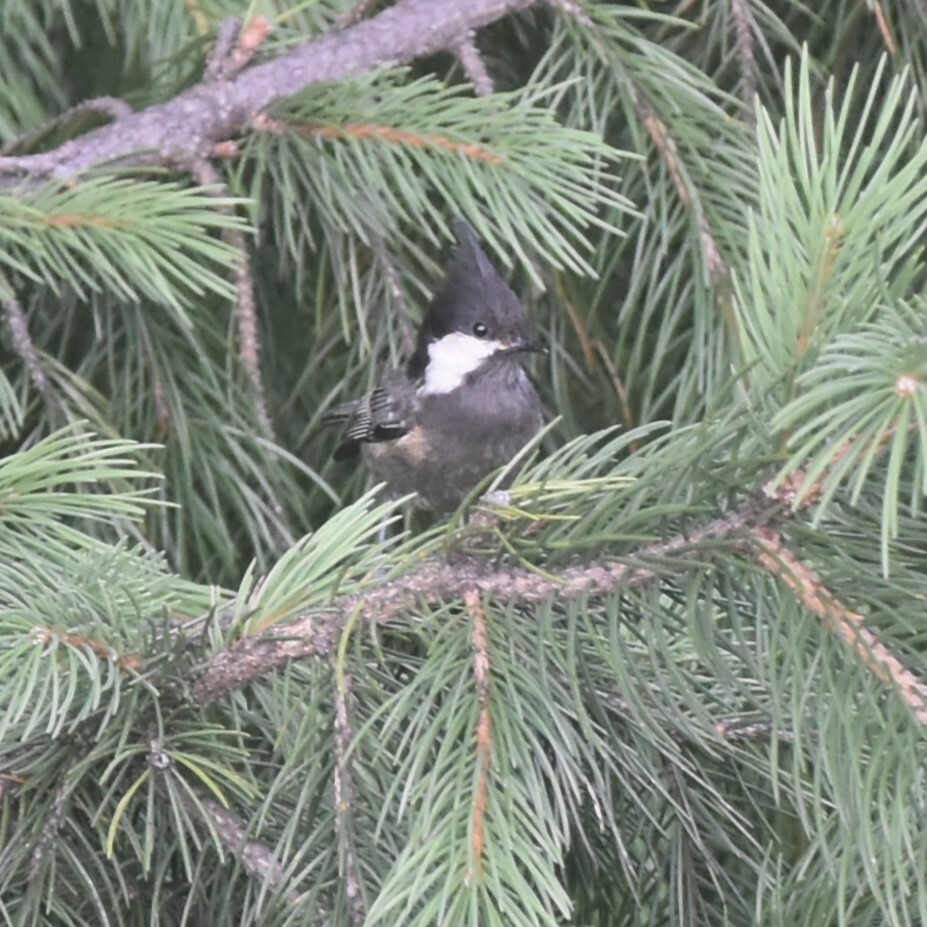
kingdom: Animalia
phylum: Chordata
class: Aves
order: Passeriformes
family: Paridae
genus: Periparus
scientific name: Periparus ater
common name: Coal tit
